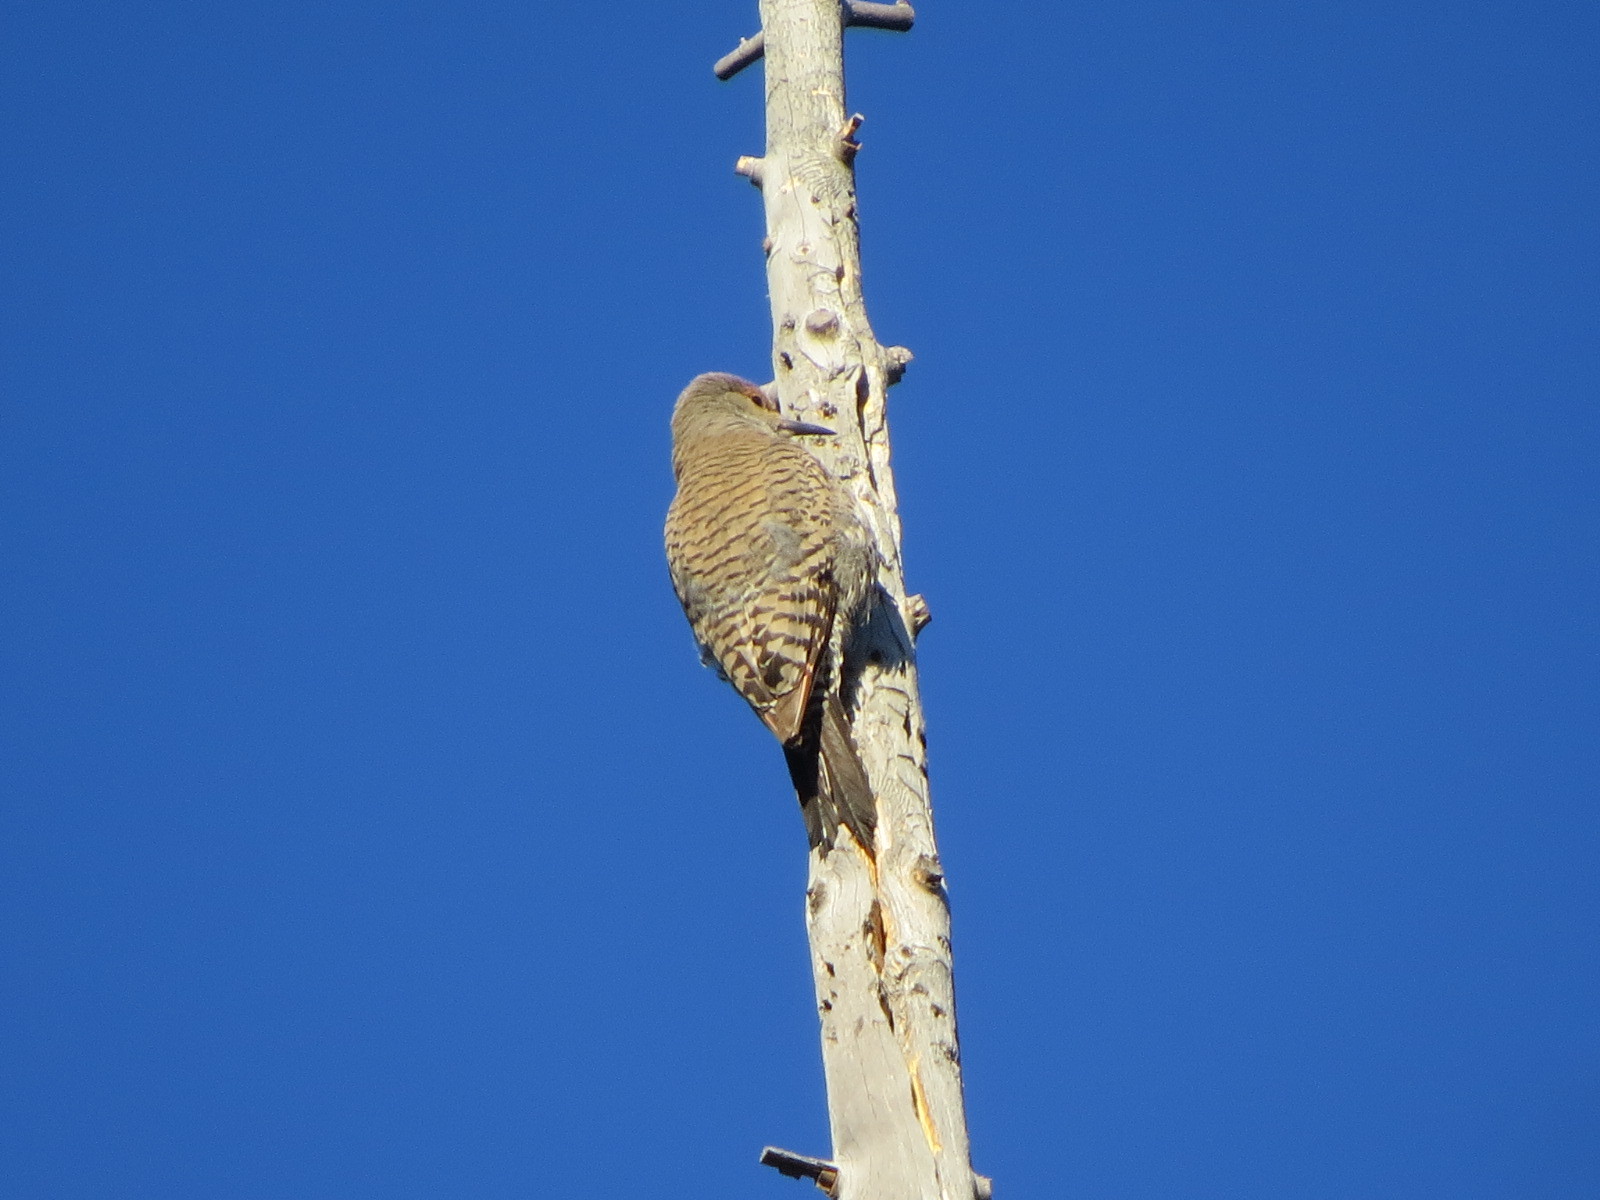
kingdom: Animalia
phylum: Chordata
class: Aves
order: Piciformes
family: Picidae
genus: Colaptes
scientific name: Colaptes auratus
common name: Northern flicker
